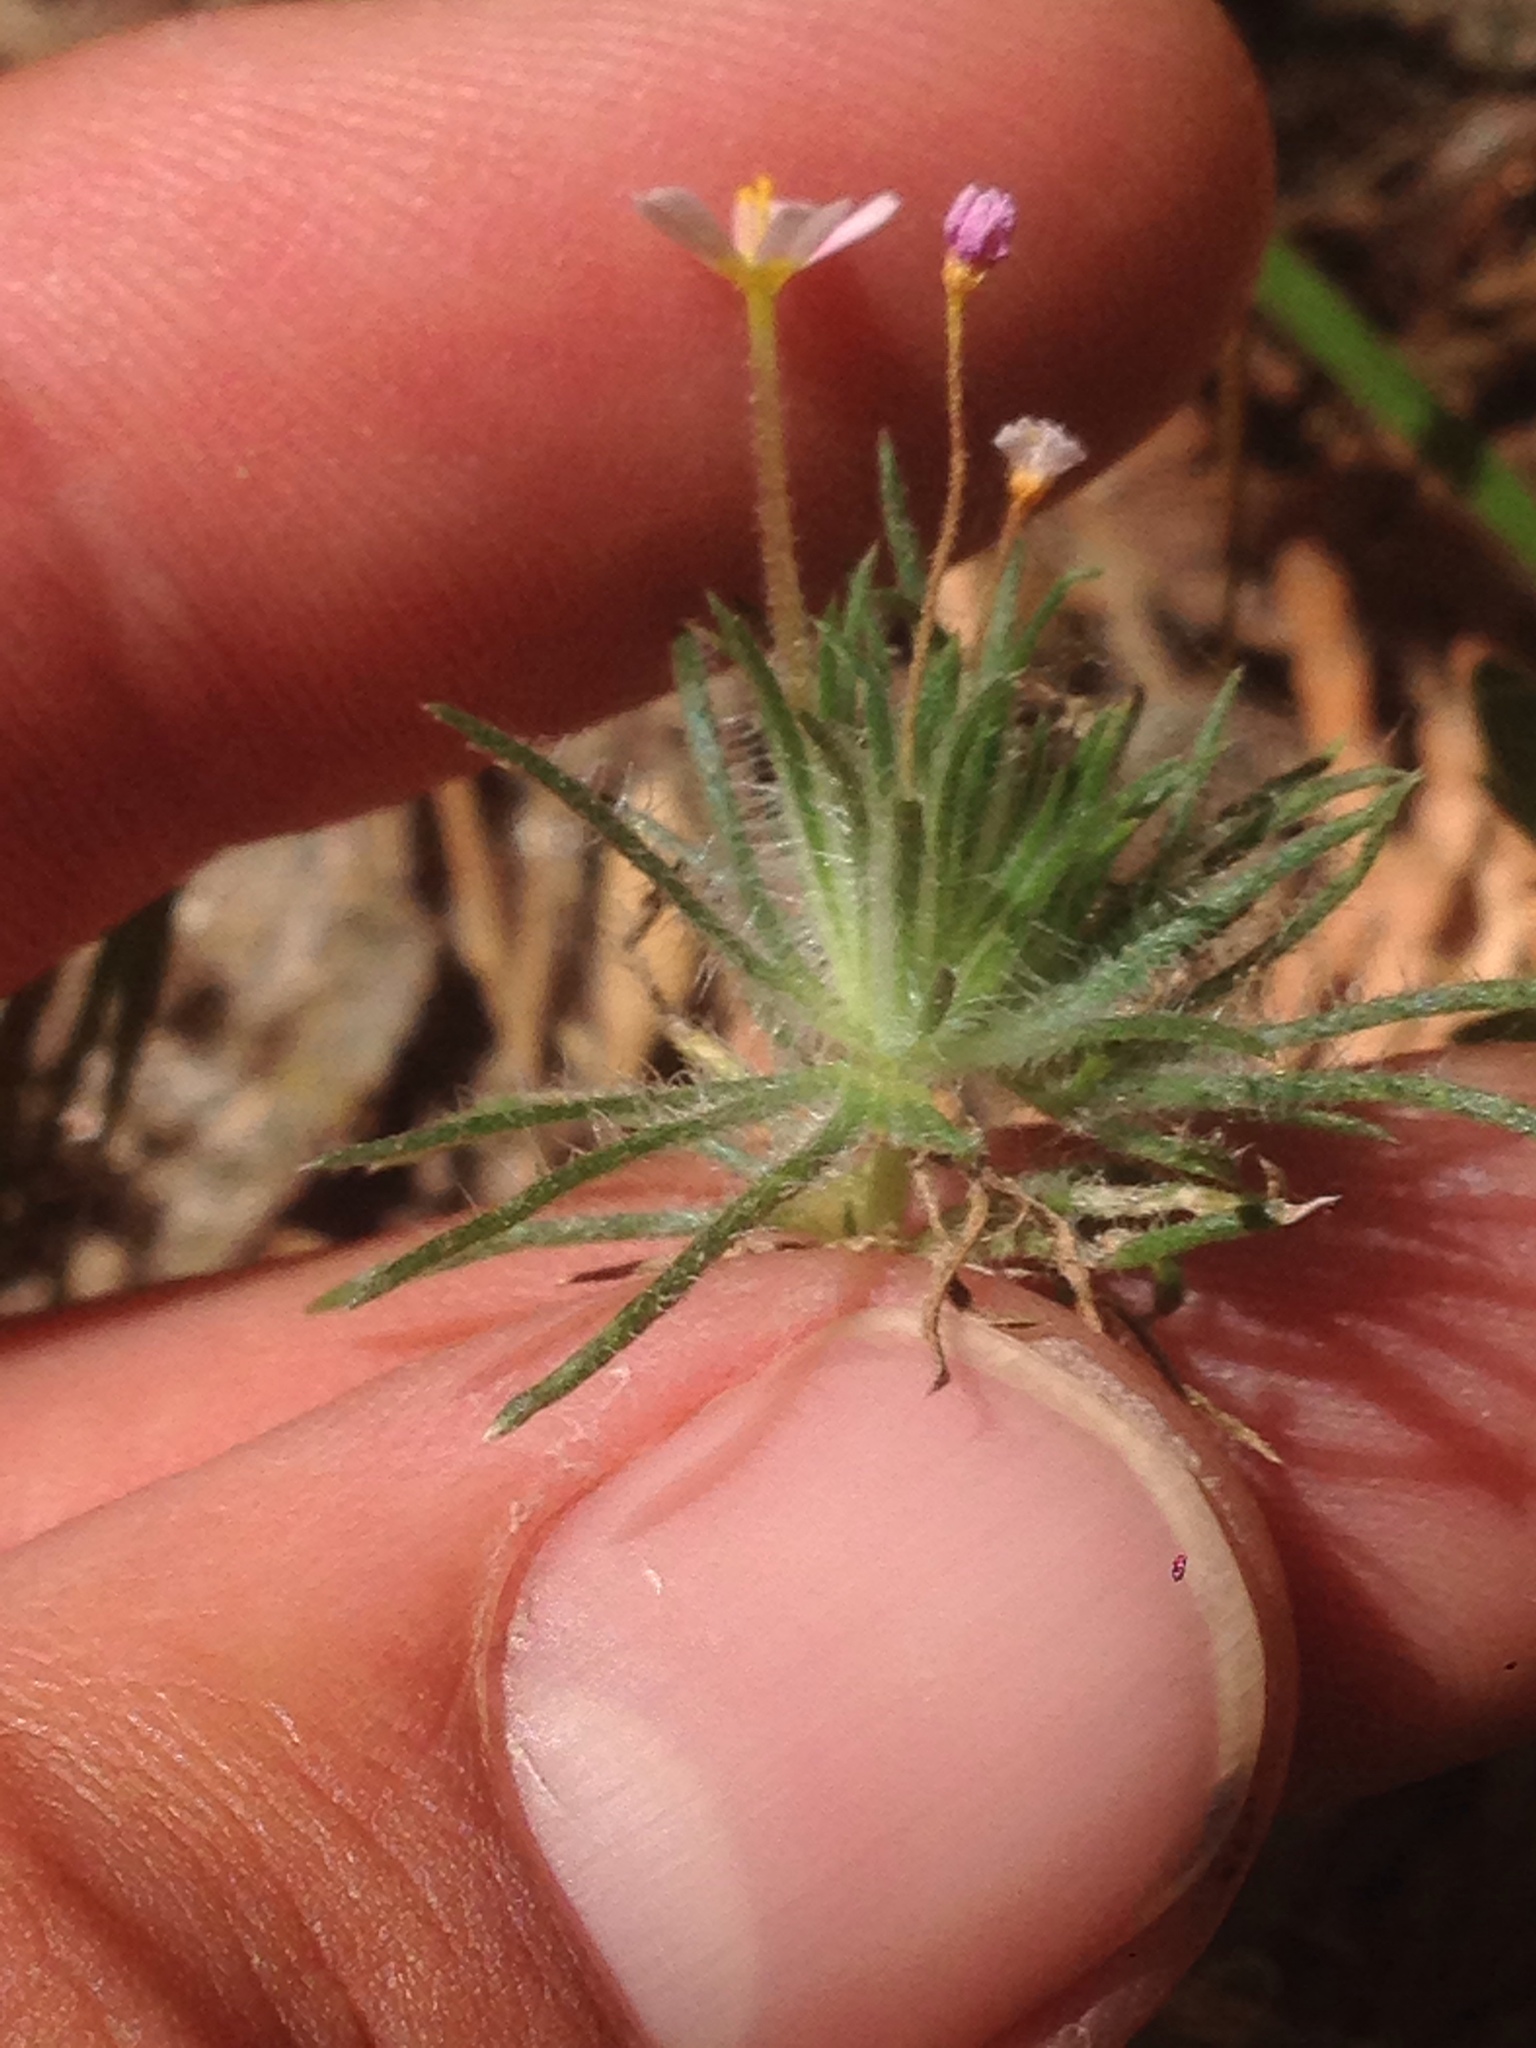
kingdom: Plantae
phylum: Tracheophyta
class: Magnoliopsida
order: Ericales
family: Polemoniaceae
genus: Leptosiphon
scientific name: Leptosiphon ciliatus
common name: Whiskerbrush
